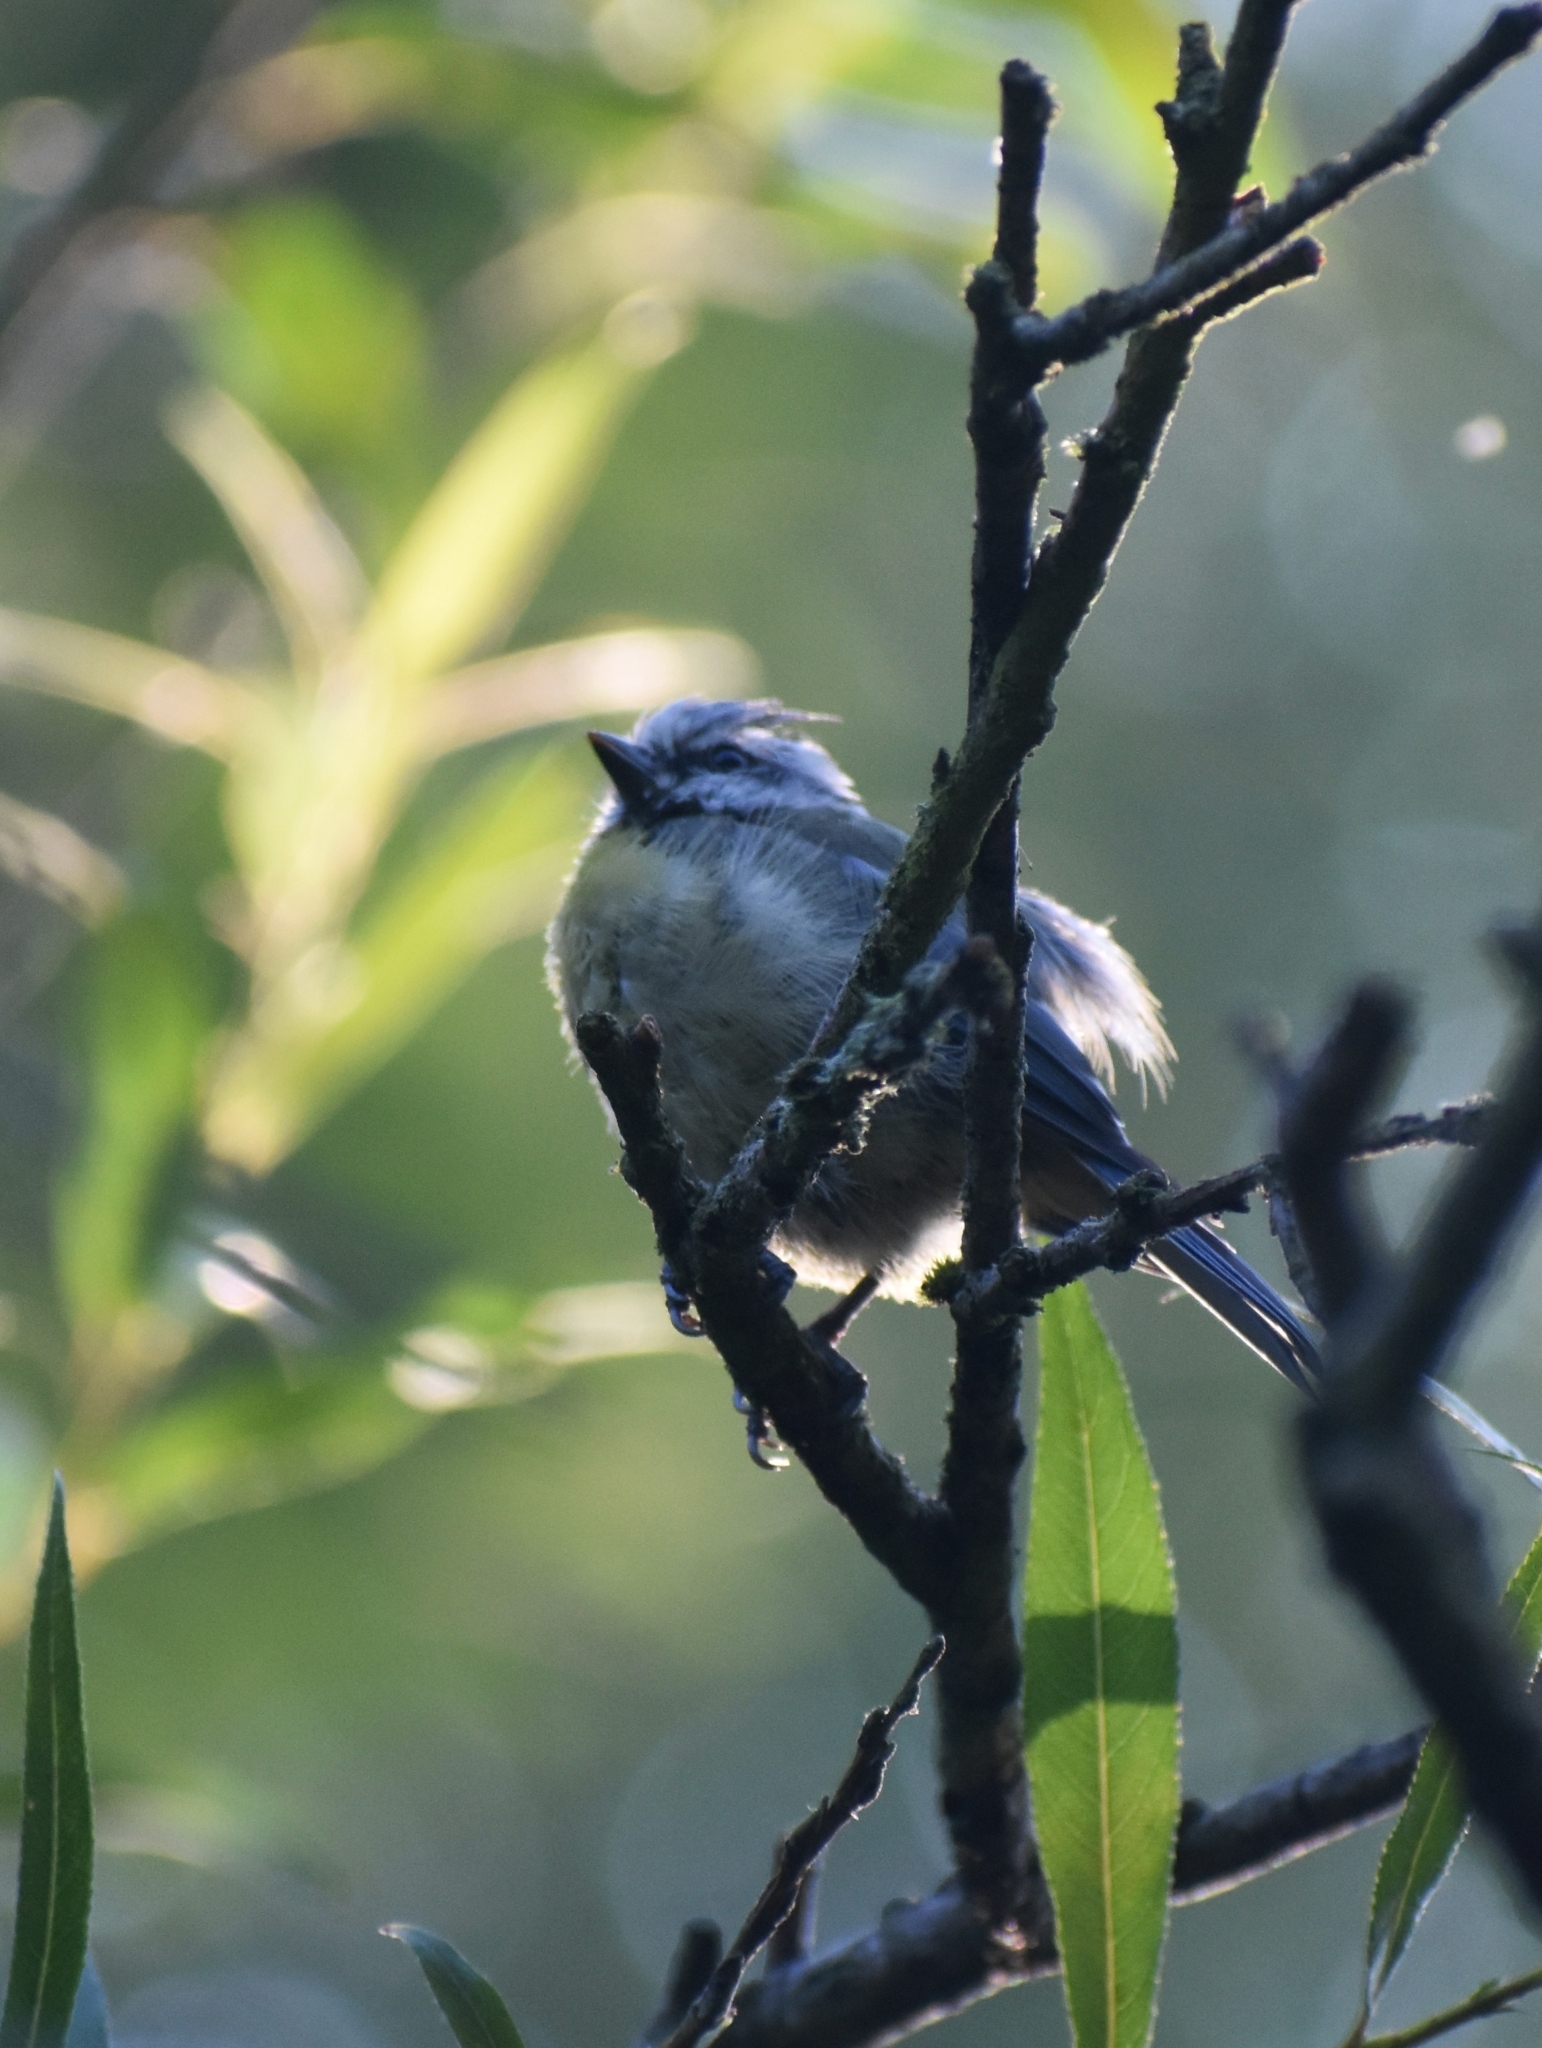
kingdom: Animalia
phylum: Chordata
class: Aves
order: Passeriformes
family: Paridae
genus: Cyanistes
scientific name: Cyanistes caeruleus
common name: Eurasian blue tit
